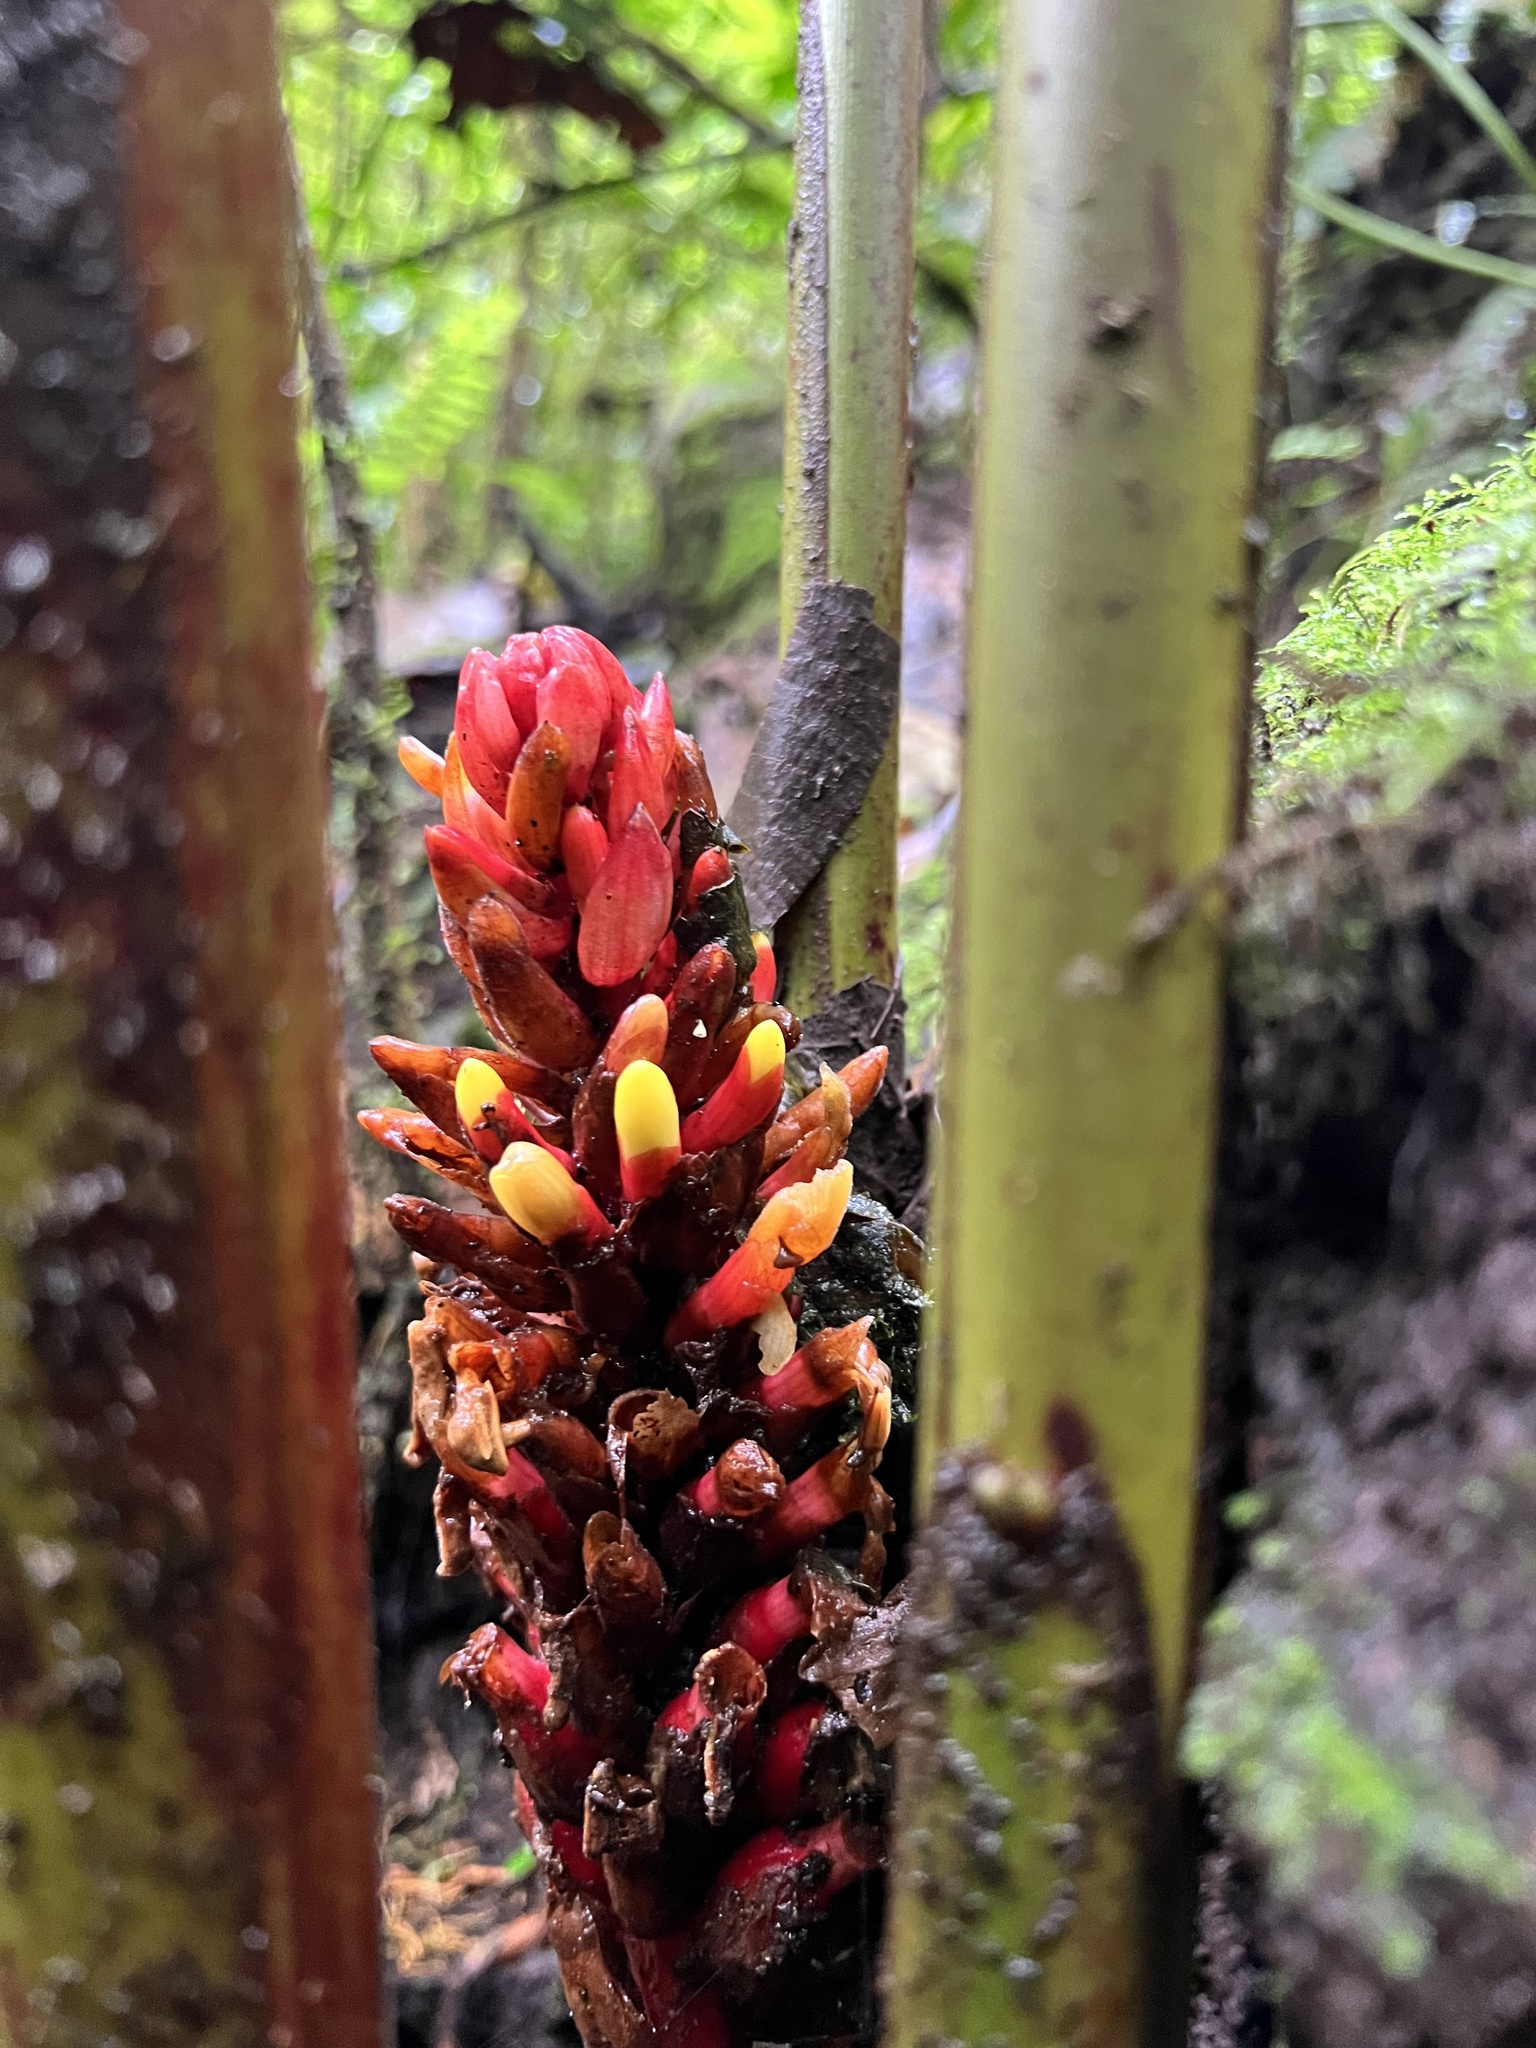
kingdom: Plantae
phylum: Tracheophyta
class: Liliopsida
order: Zingiberales
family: Zingiberaceae
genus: Renealmia
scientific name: Renealmia thyrsoidea
